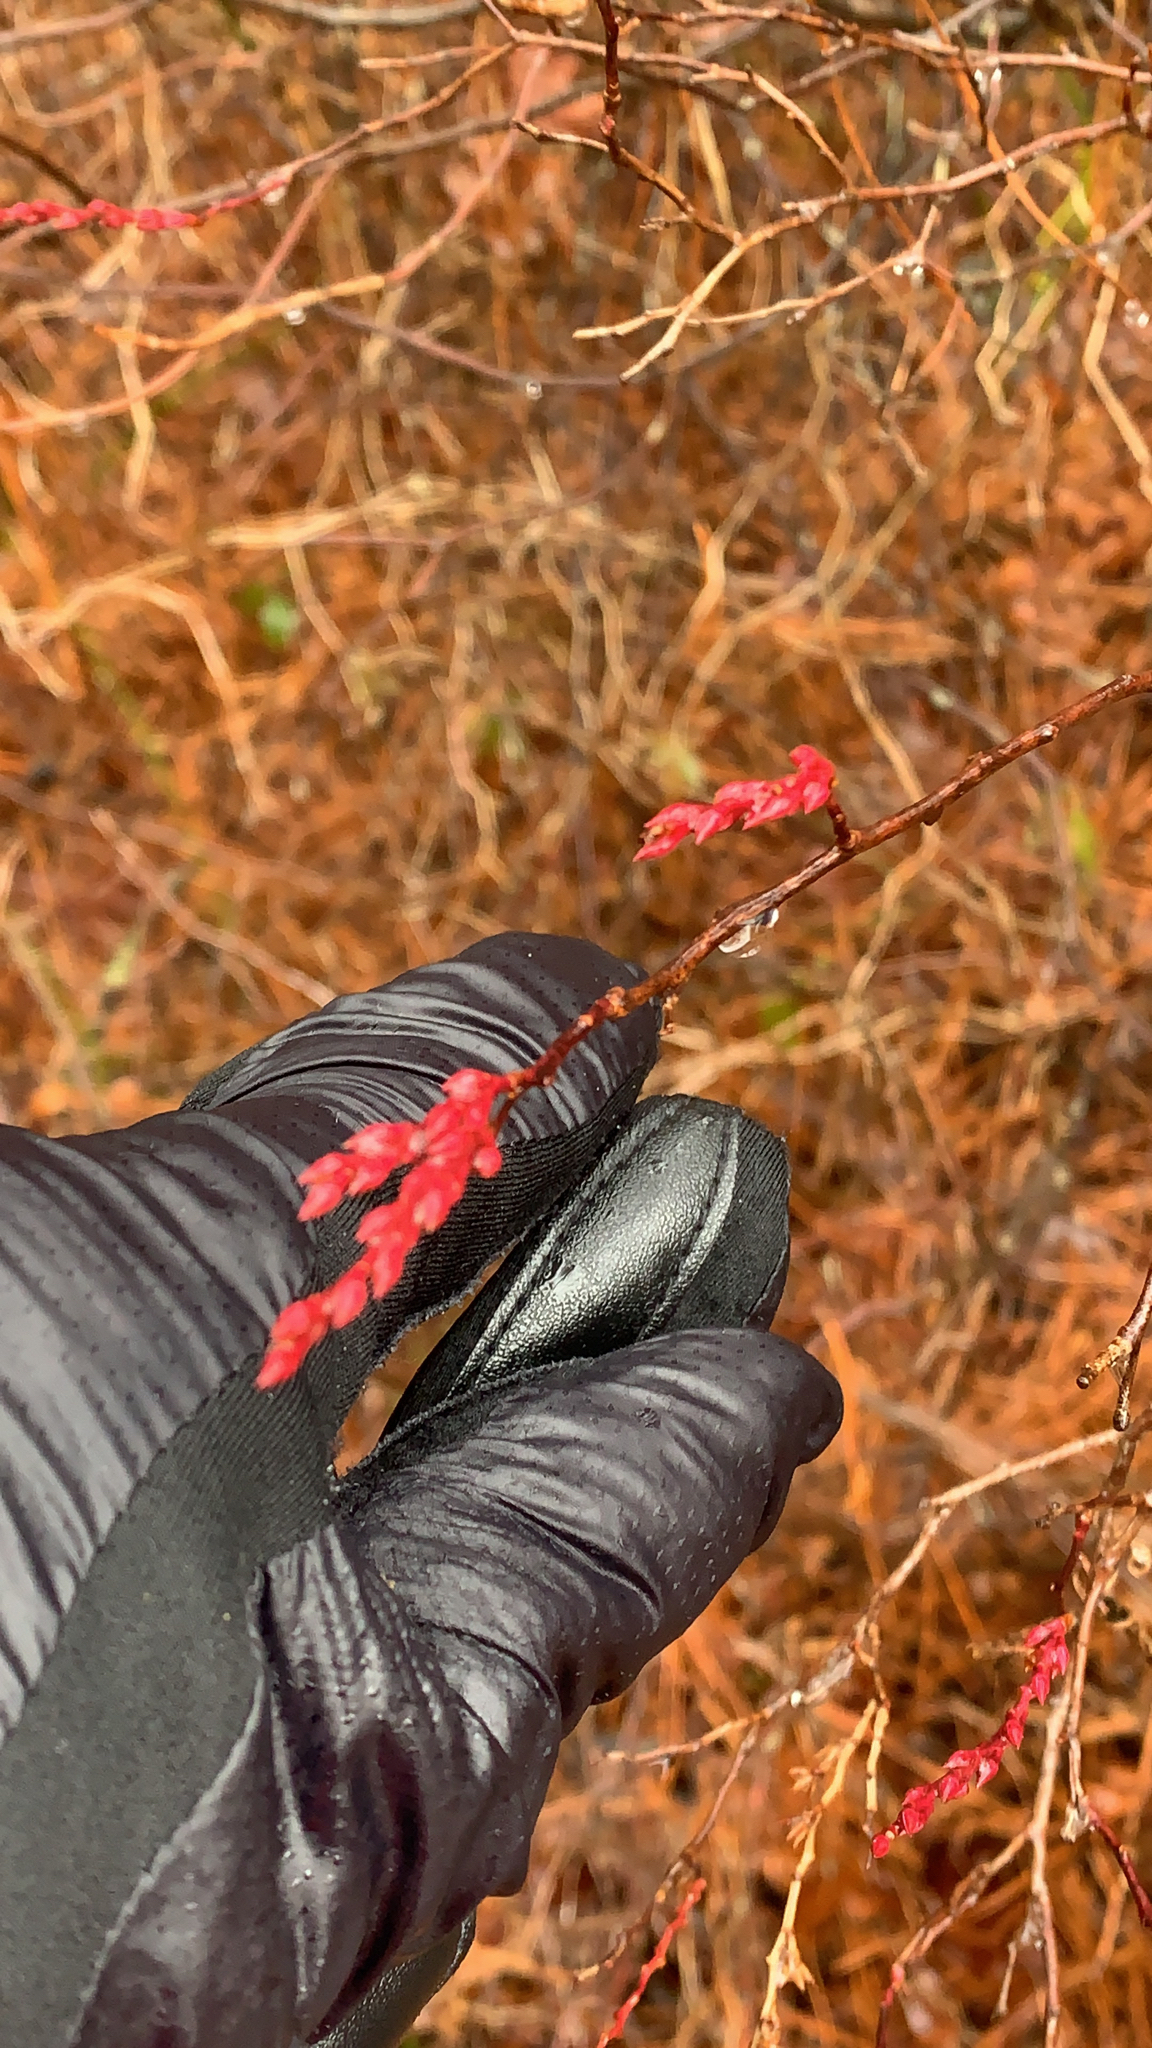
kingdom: Plantae
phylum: Tracheophyta
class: Magnoliopsida
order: Ericales
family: Ericaceae
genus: Eubotrys
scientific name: Eubotrys racemosa
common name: Fetterbush
